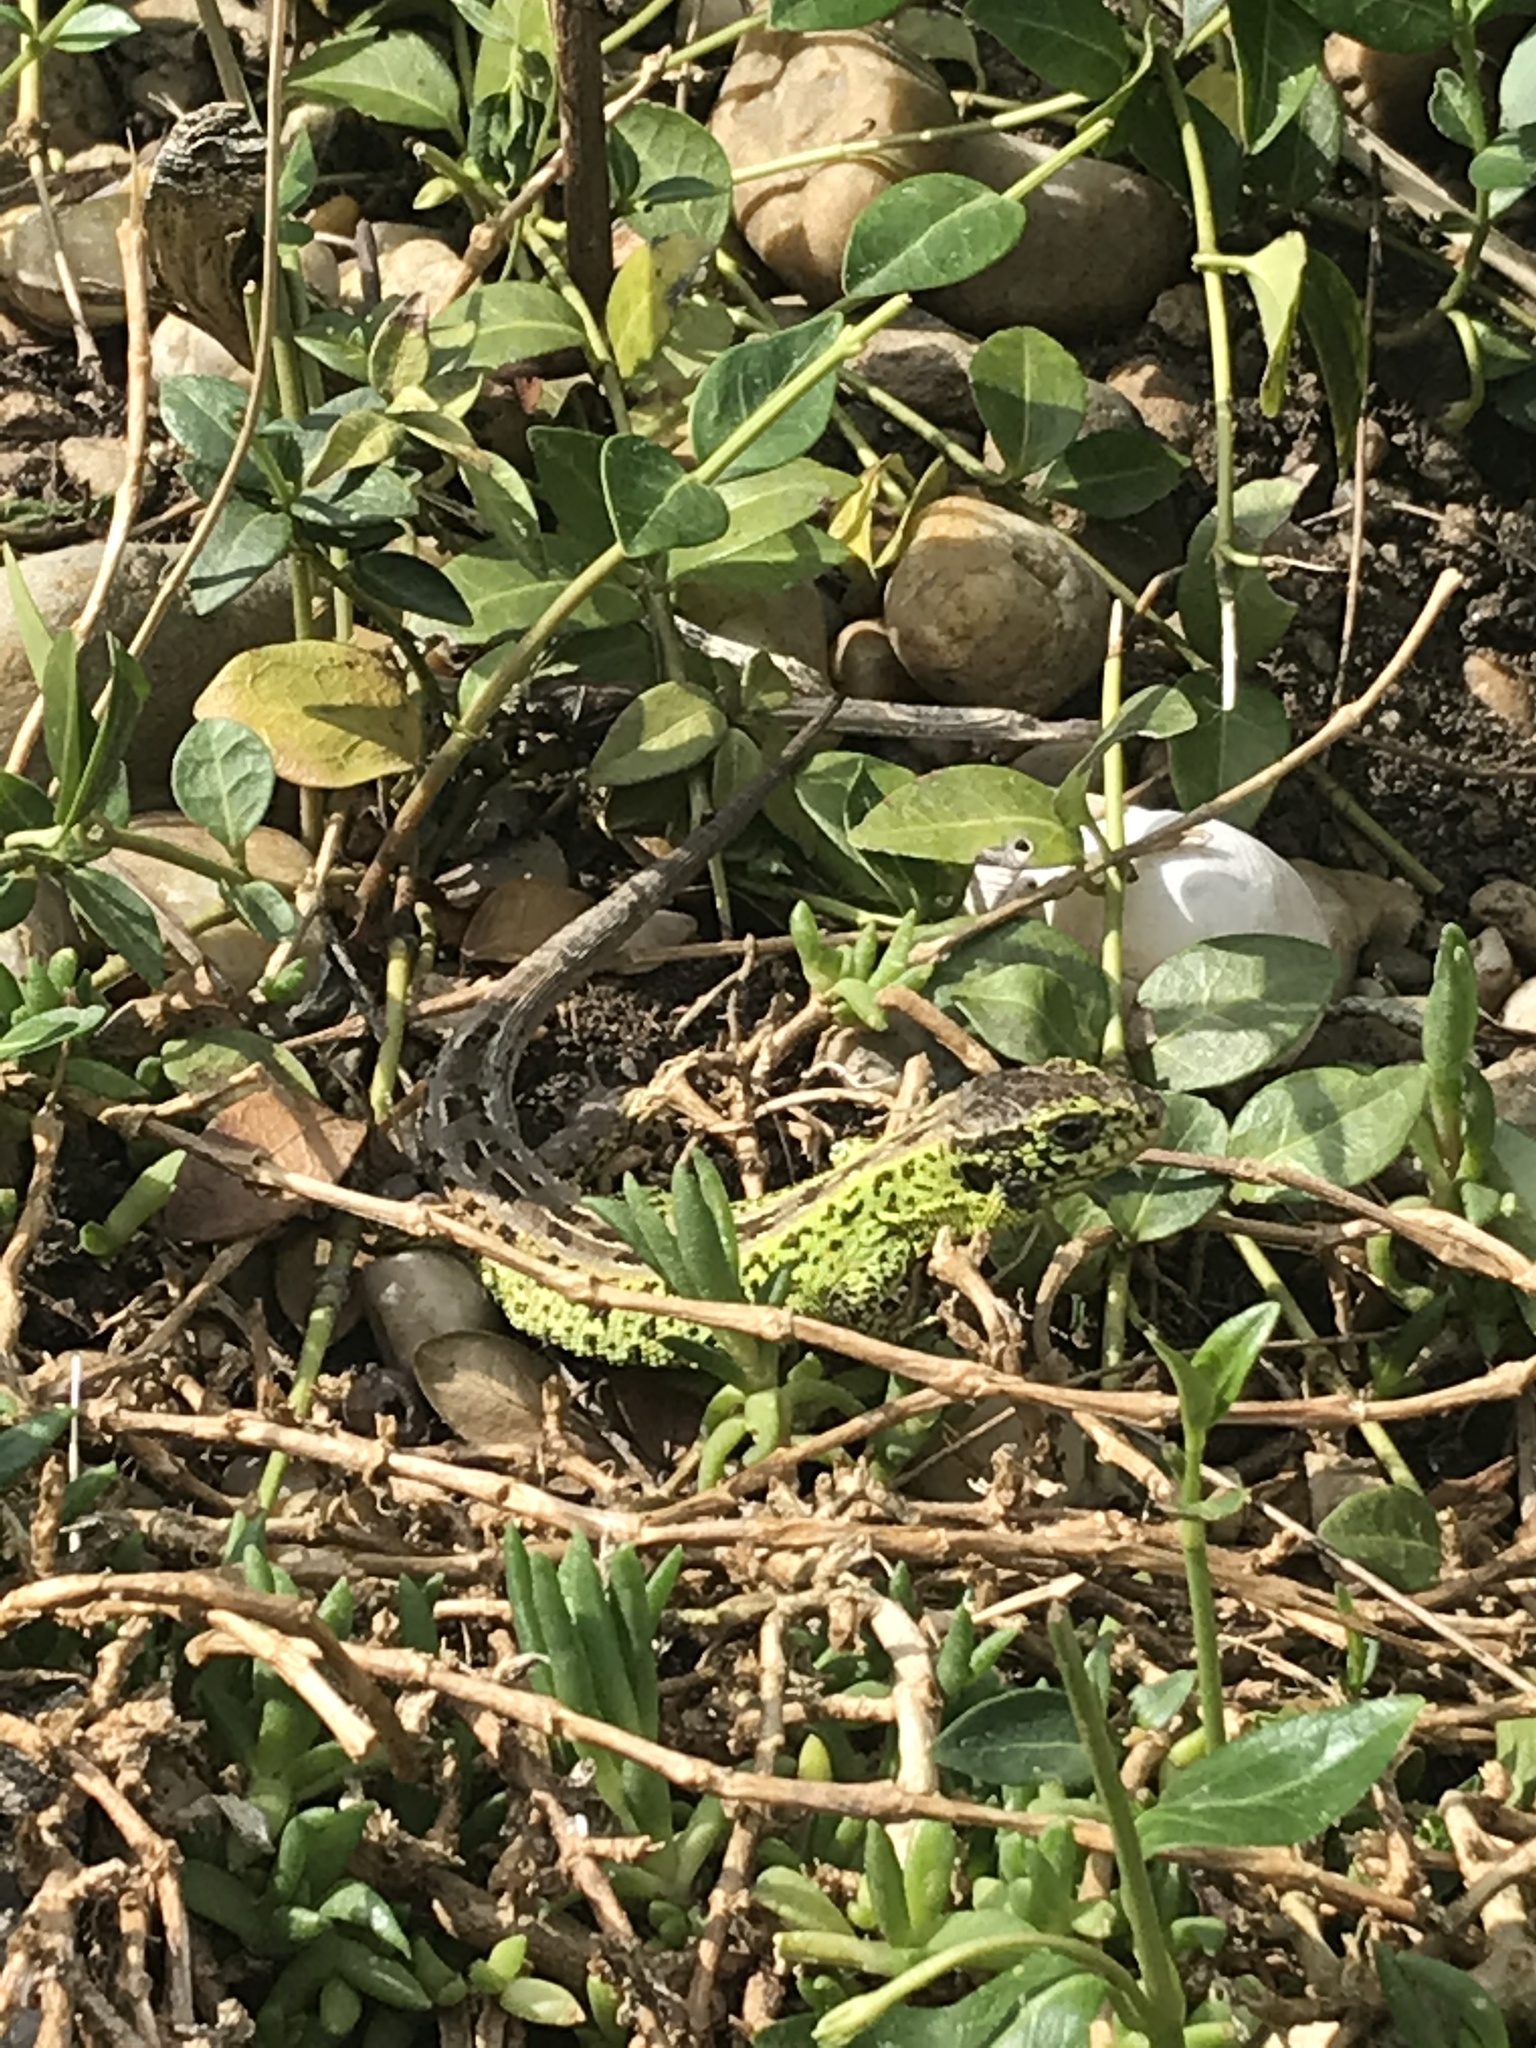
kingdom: Animalia
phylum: Chordata
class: Squamata
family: Lacertidae
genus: Lacerta
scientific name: Lacerta agilis
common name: Sand lizard
